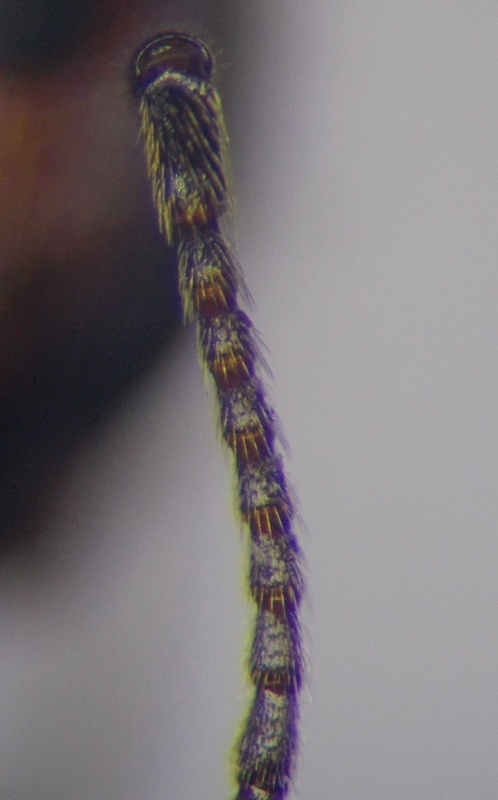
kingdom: Animalia
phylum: Arthropoda
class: Insecta
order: Hymenoptera
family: Formicidae
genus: Messor
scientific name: Messor structor
